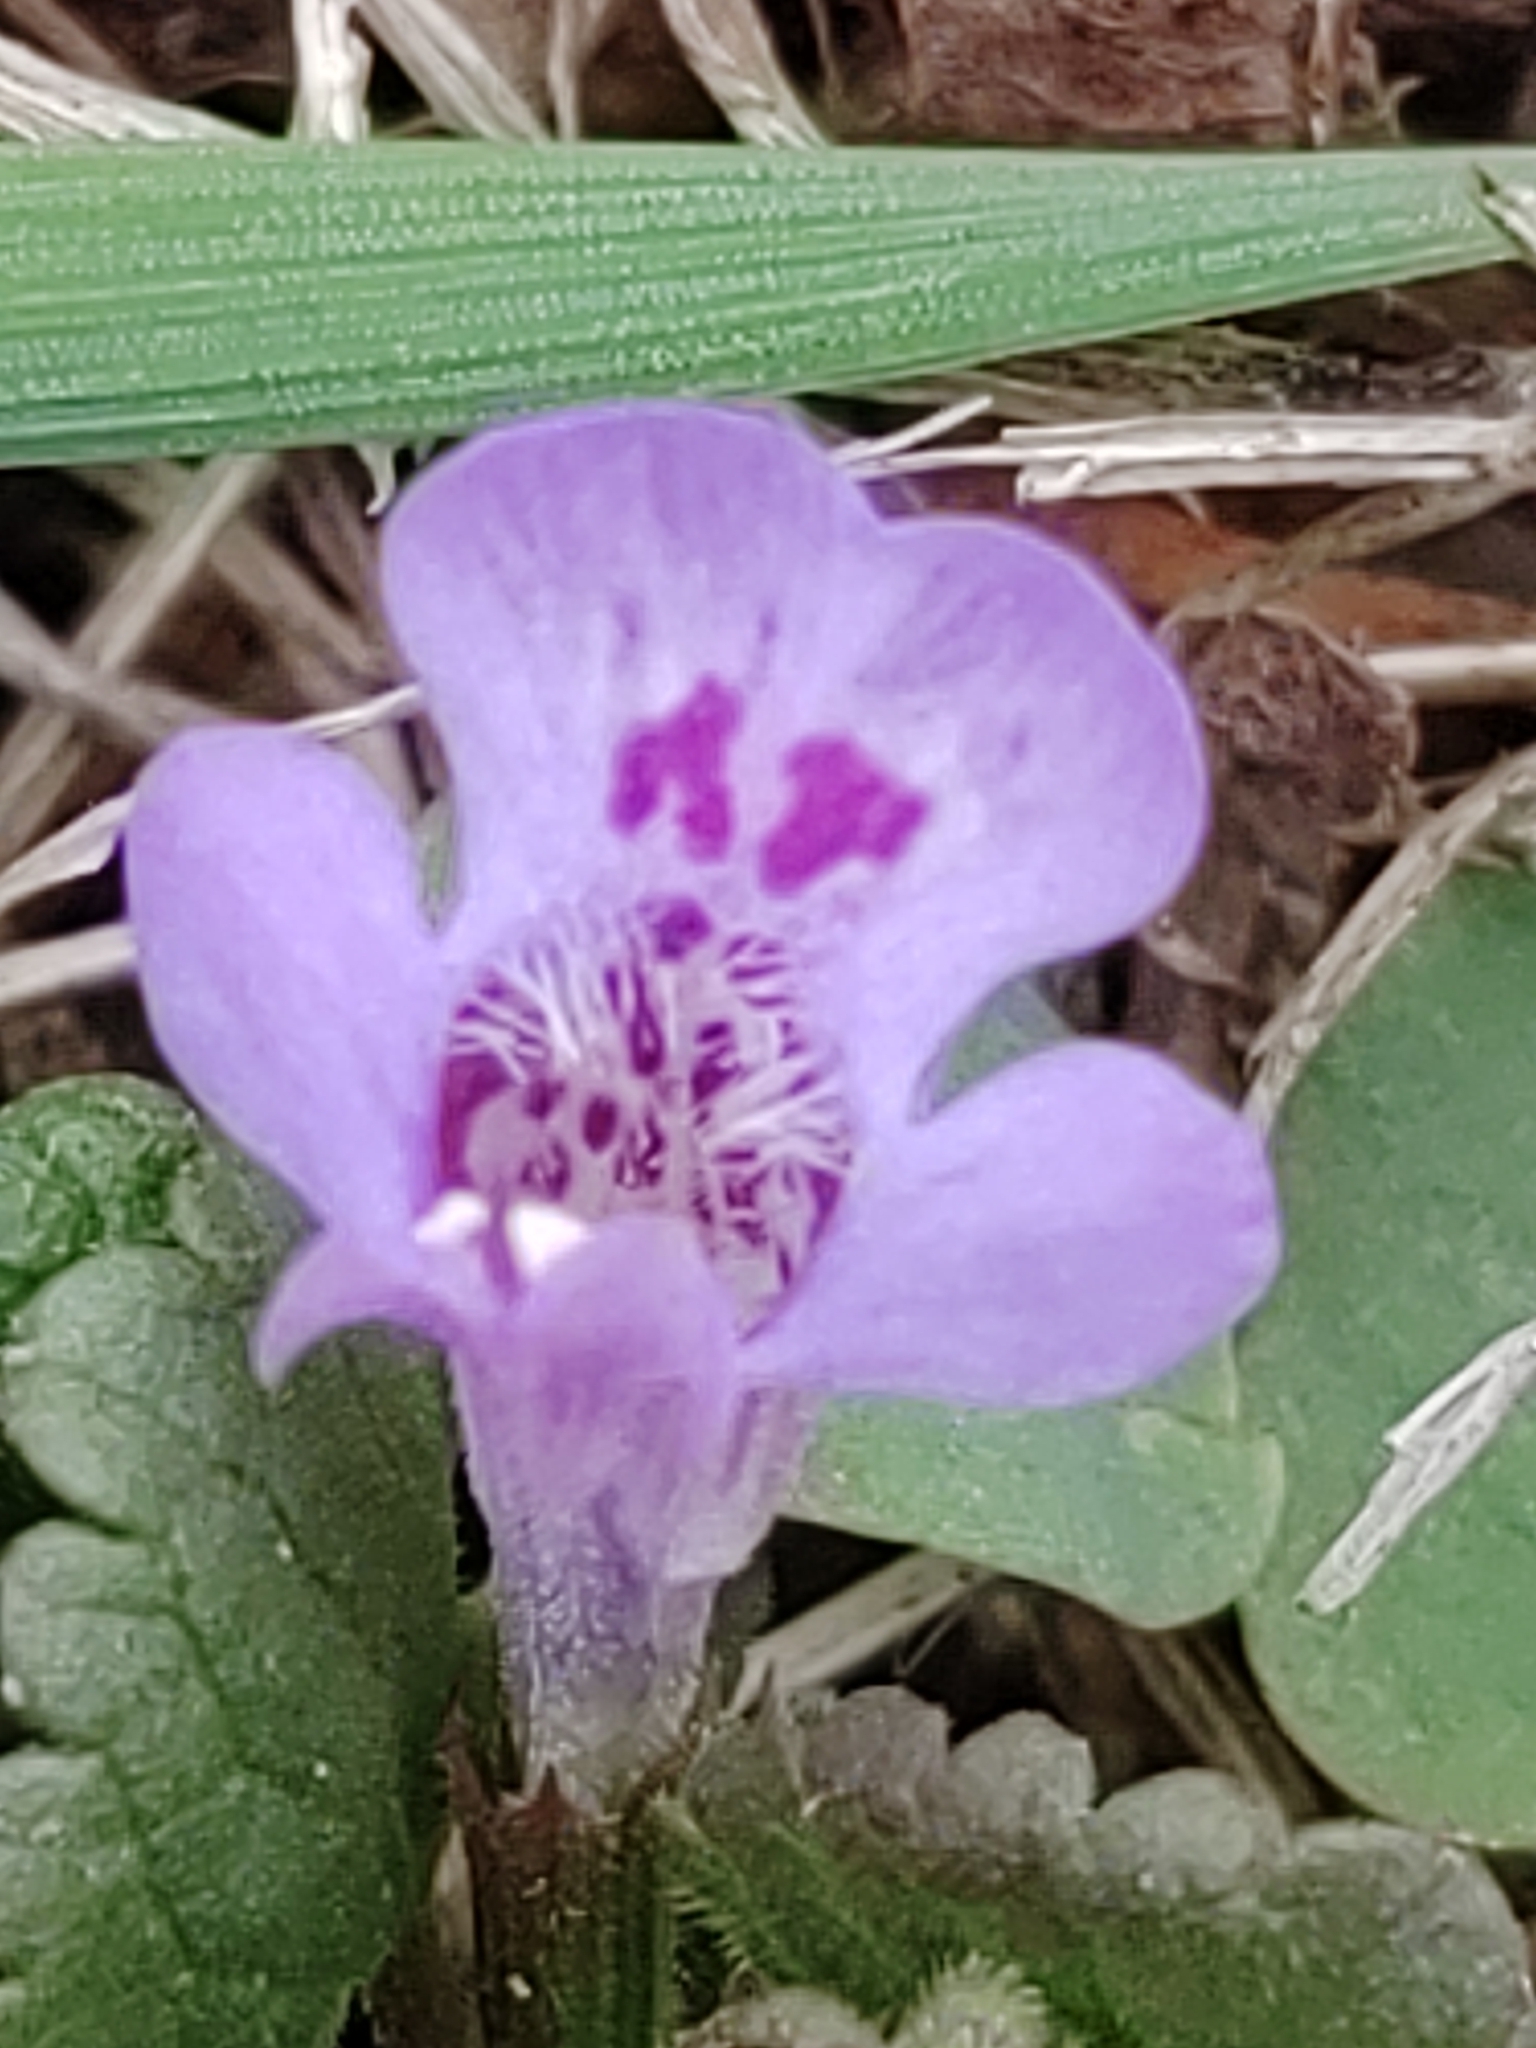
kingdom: Plantae
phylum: Tracheophyta
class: Magnoliopsida
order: Lamiales
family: Lamiaceae
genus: Glechoma
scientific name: Glechoma hederacea
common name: Ground ivy
